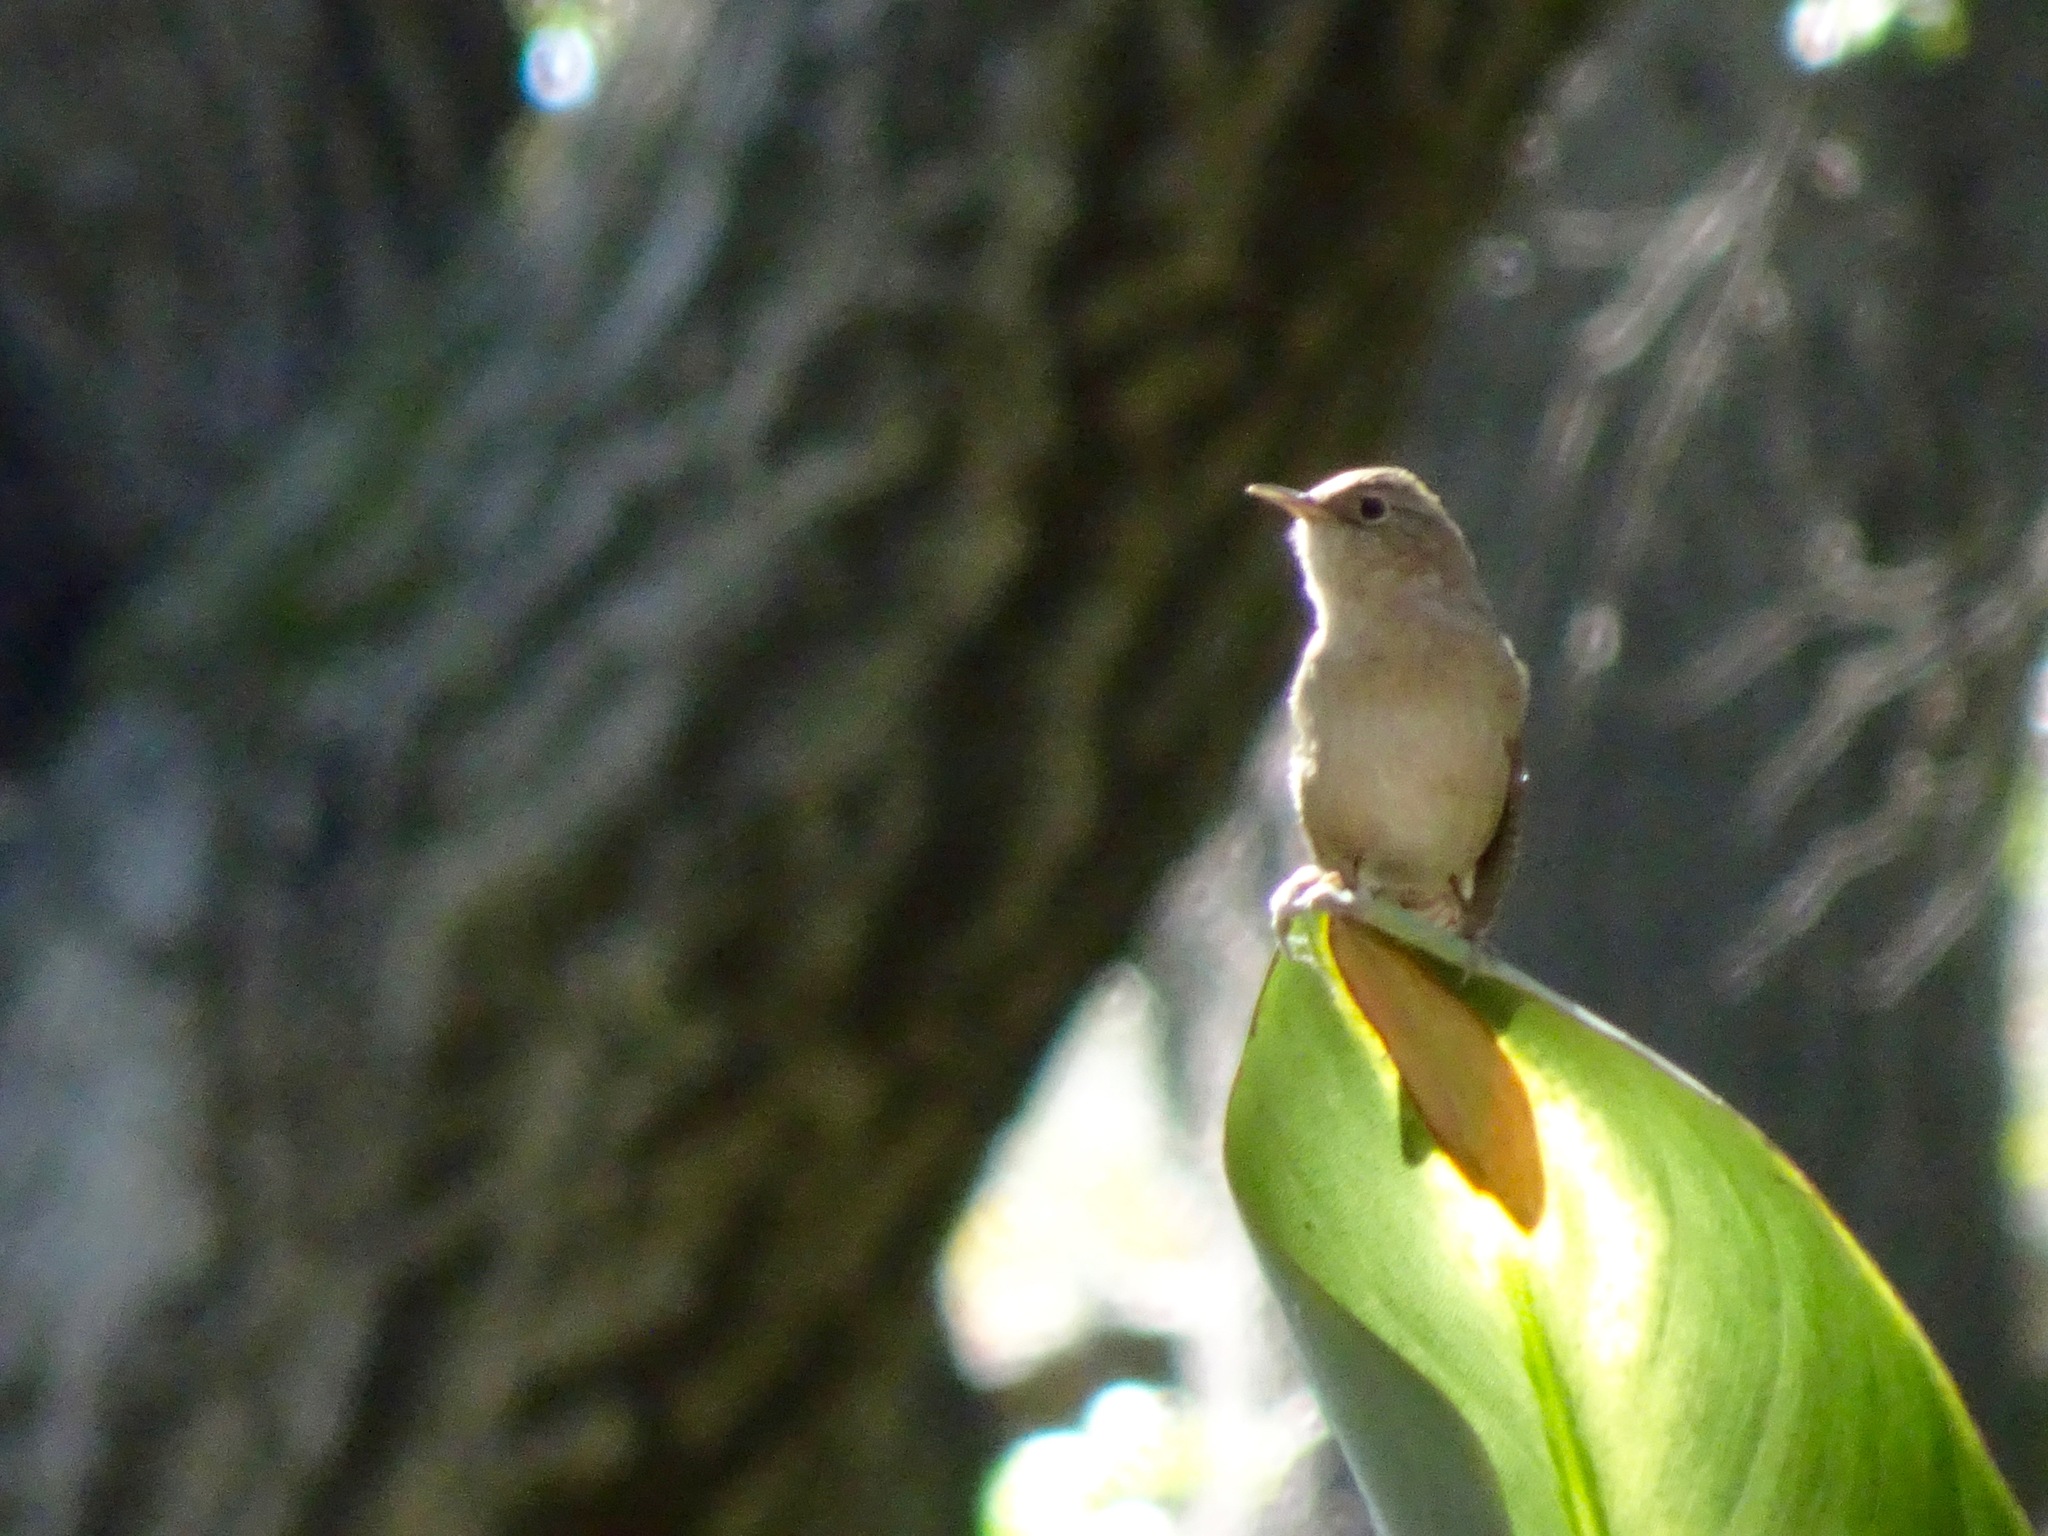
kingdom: Animalia
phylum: Chordata
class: Aves
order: Passeriformes
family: Troglodytidae
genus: Troglodytes
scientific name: Troglodytes aedon
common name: House wren
